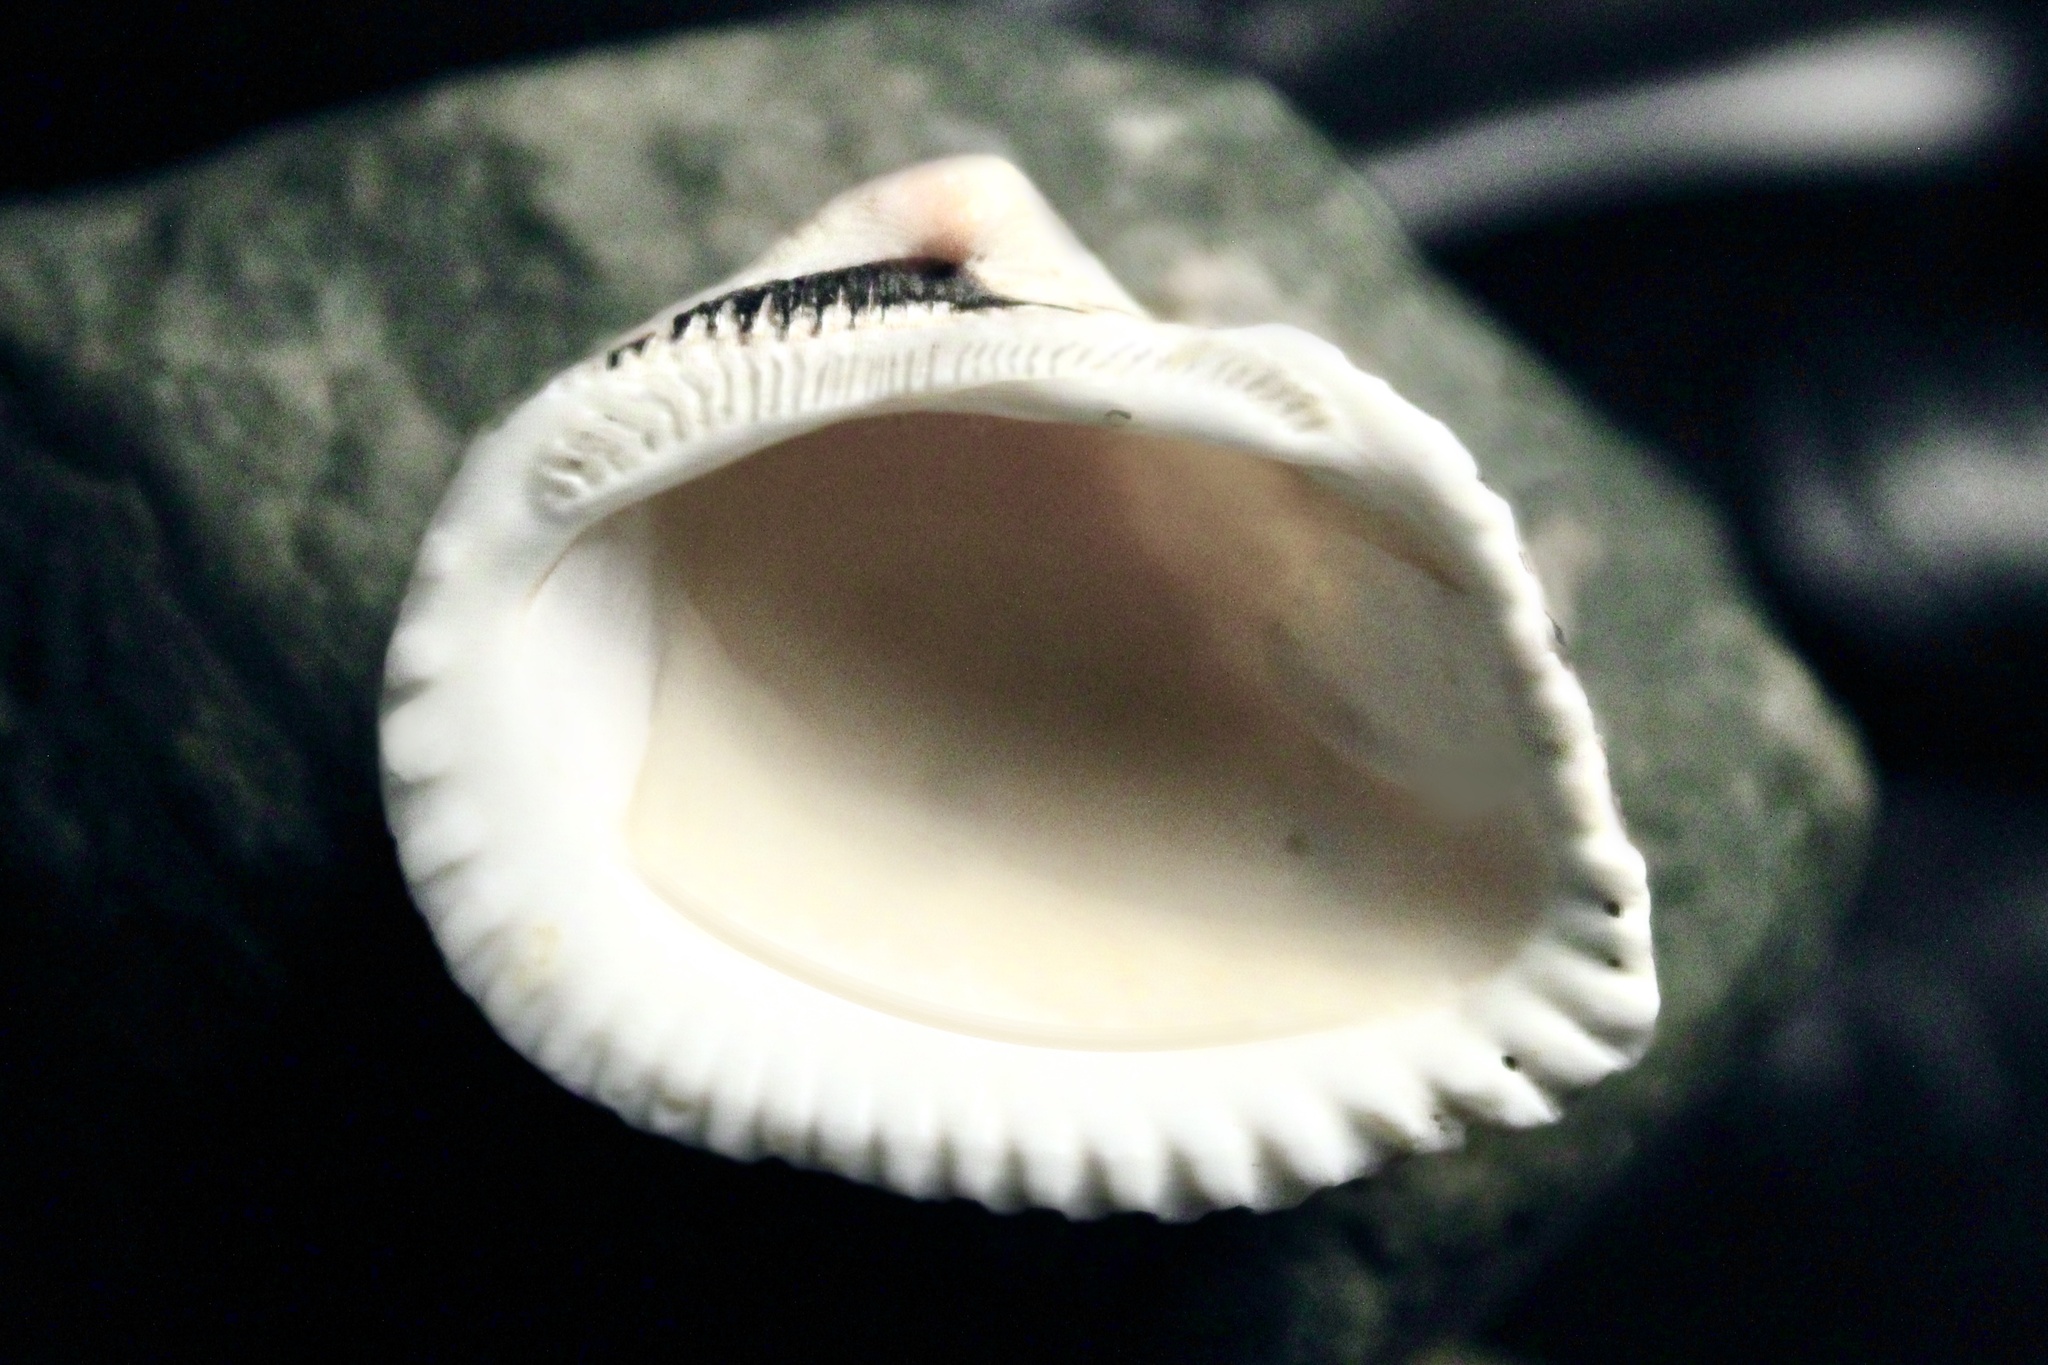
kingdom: Animalia
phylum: Mollusca
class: Bivalvia
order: Arcida
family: Noetiidae
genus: Noetia
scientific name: Noetia ponderosa
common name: Ponderous ark
